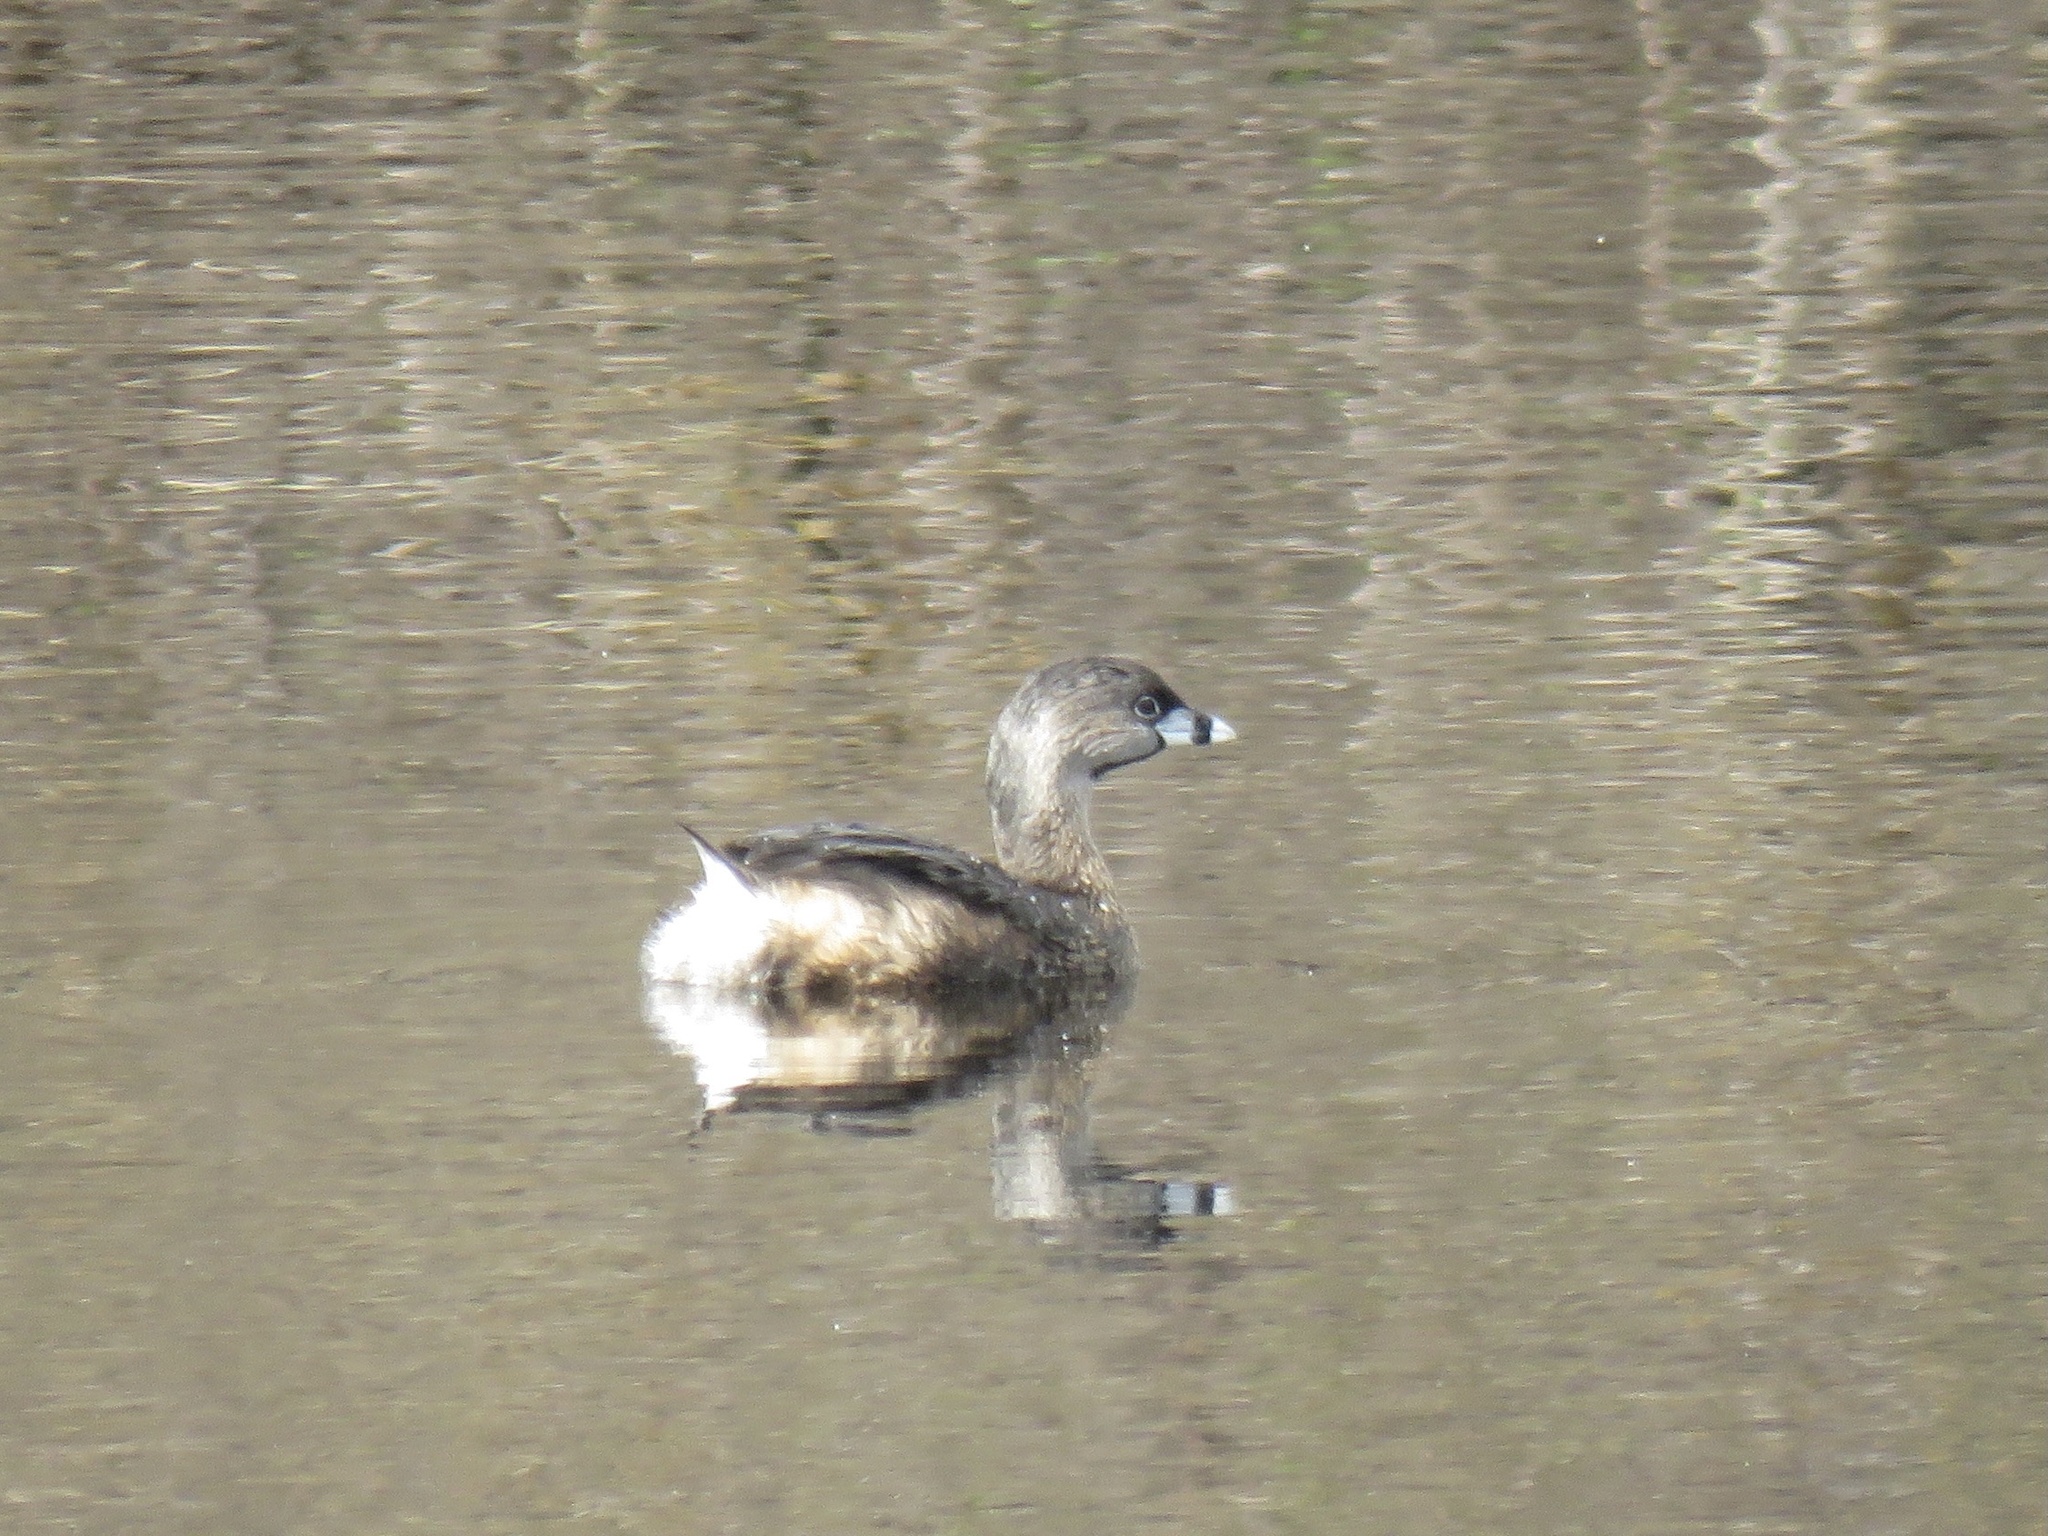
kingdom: Animalia
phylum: Chordata
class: Aves
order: Podicipediformes
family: Podicipedidae
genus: Podilymbus
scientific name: Podilymbus podiceps
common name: Pied-billed grebe
